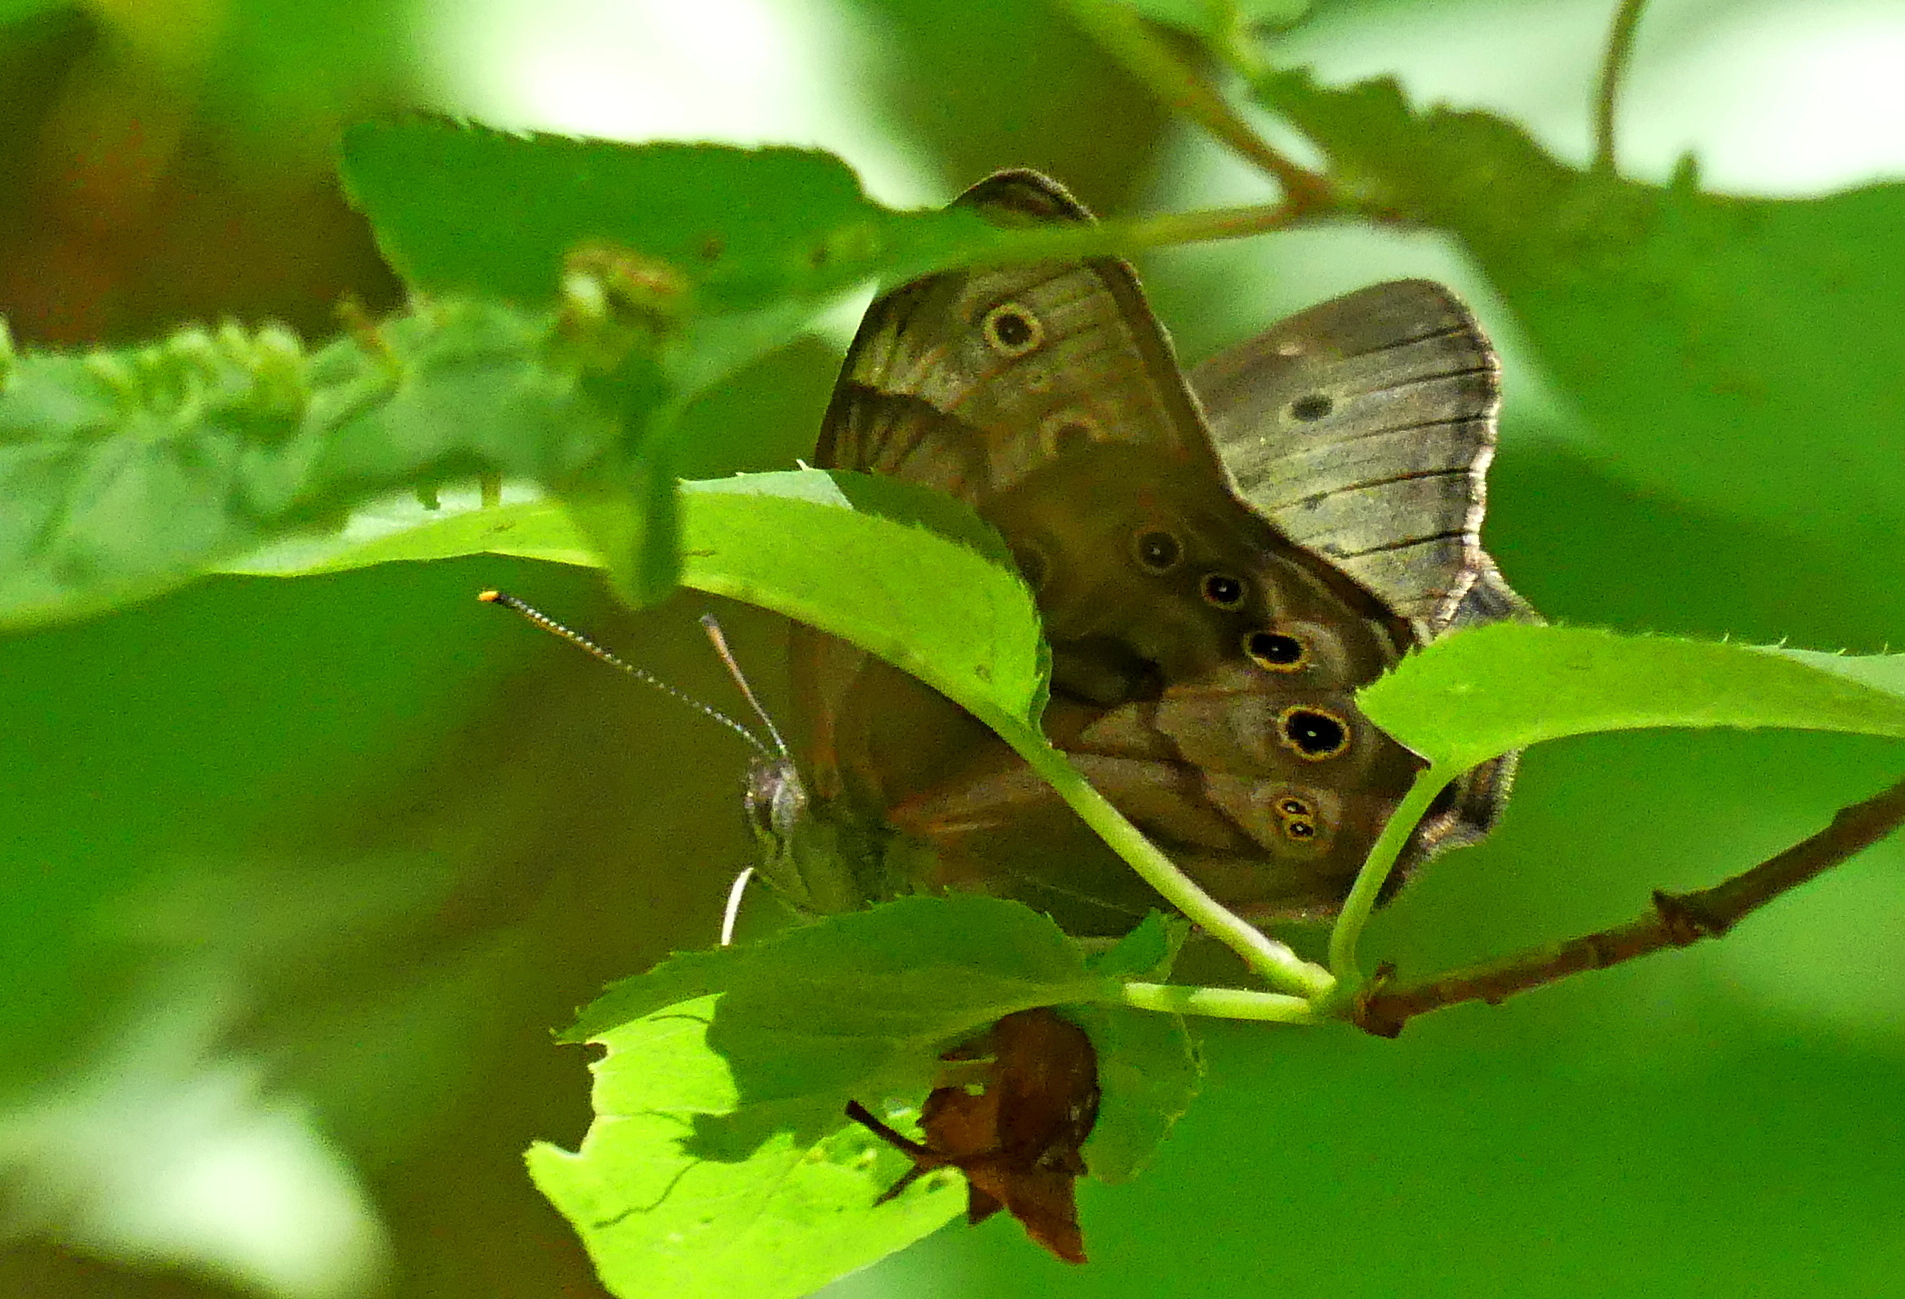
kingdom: Animalia
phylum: Arthropoda
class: Insecta
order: Lepidoptera
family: Nymphalidae
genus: Lethe
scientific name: Lethe anthedon
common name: Northern pearly-eye
